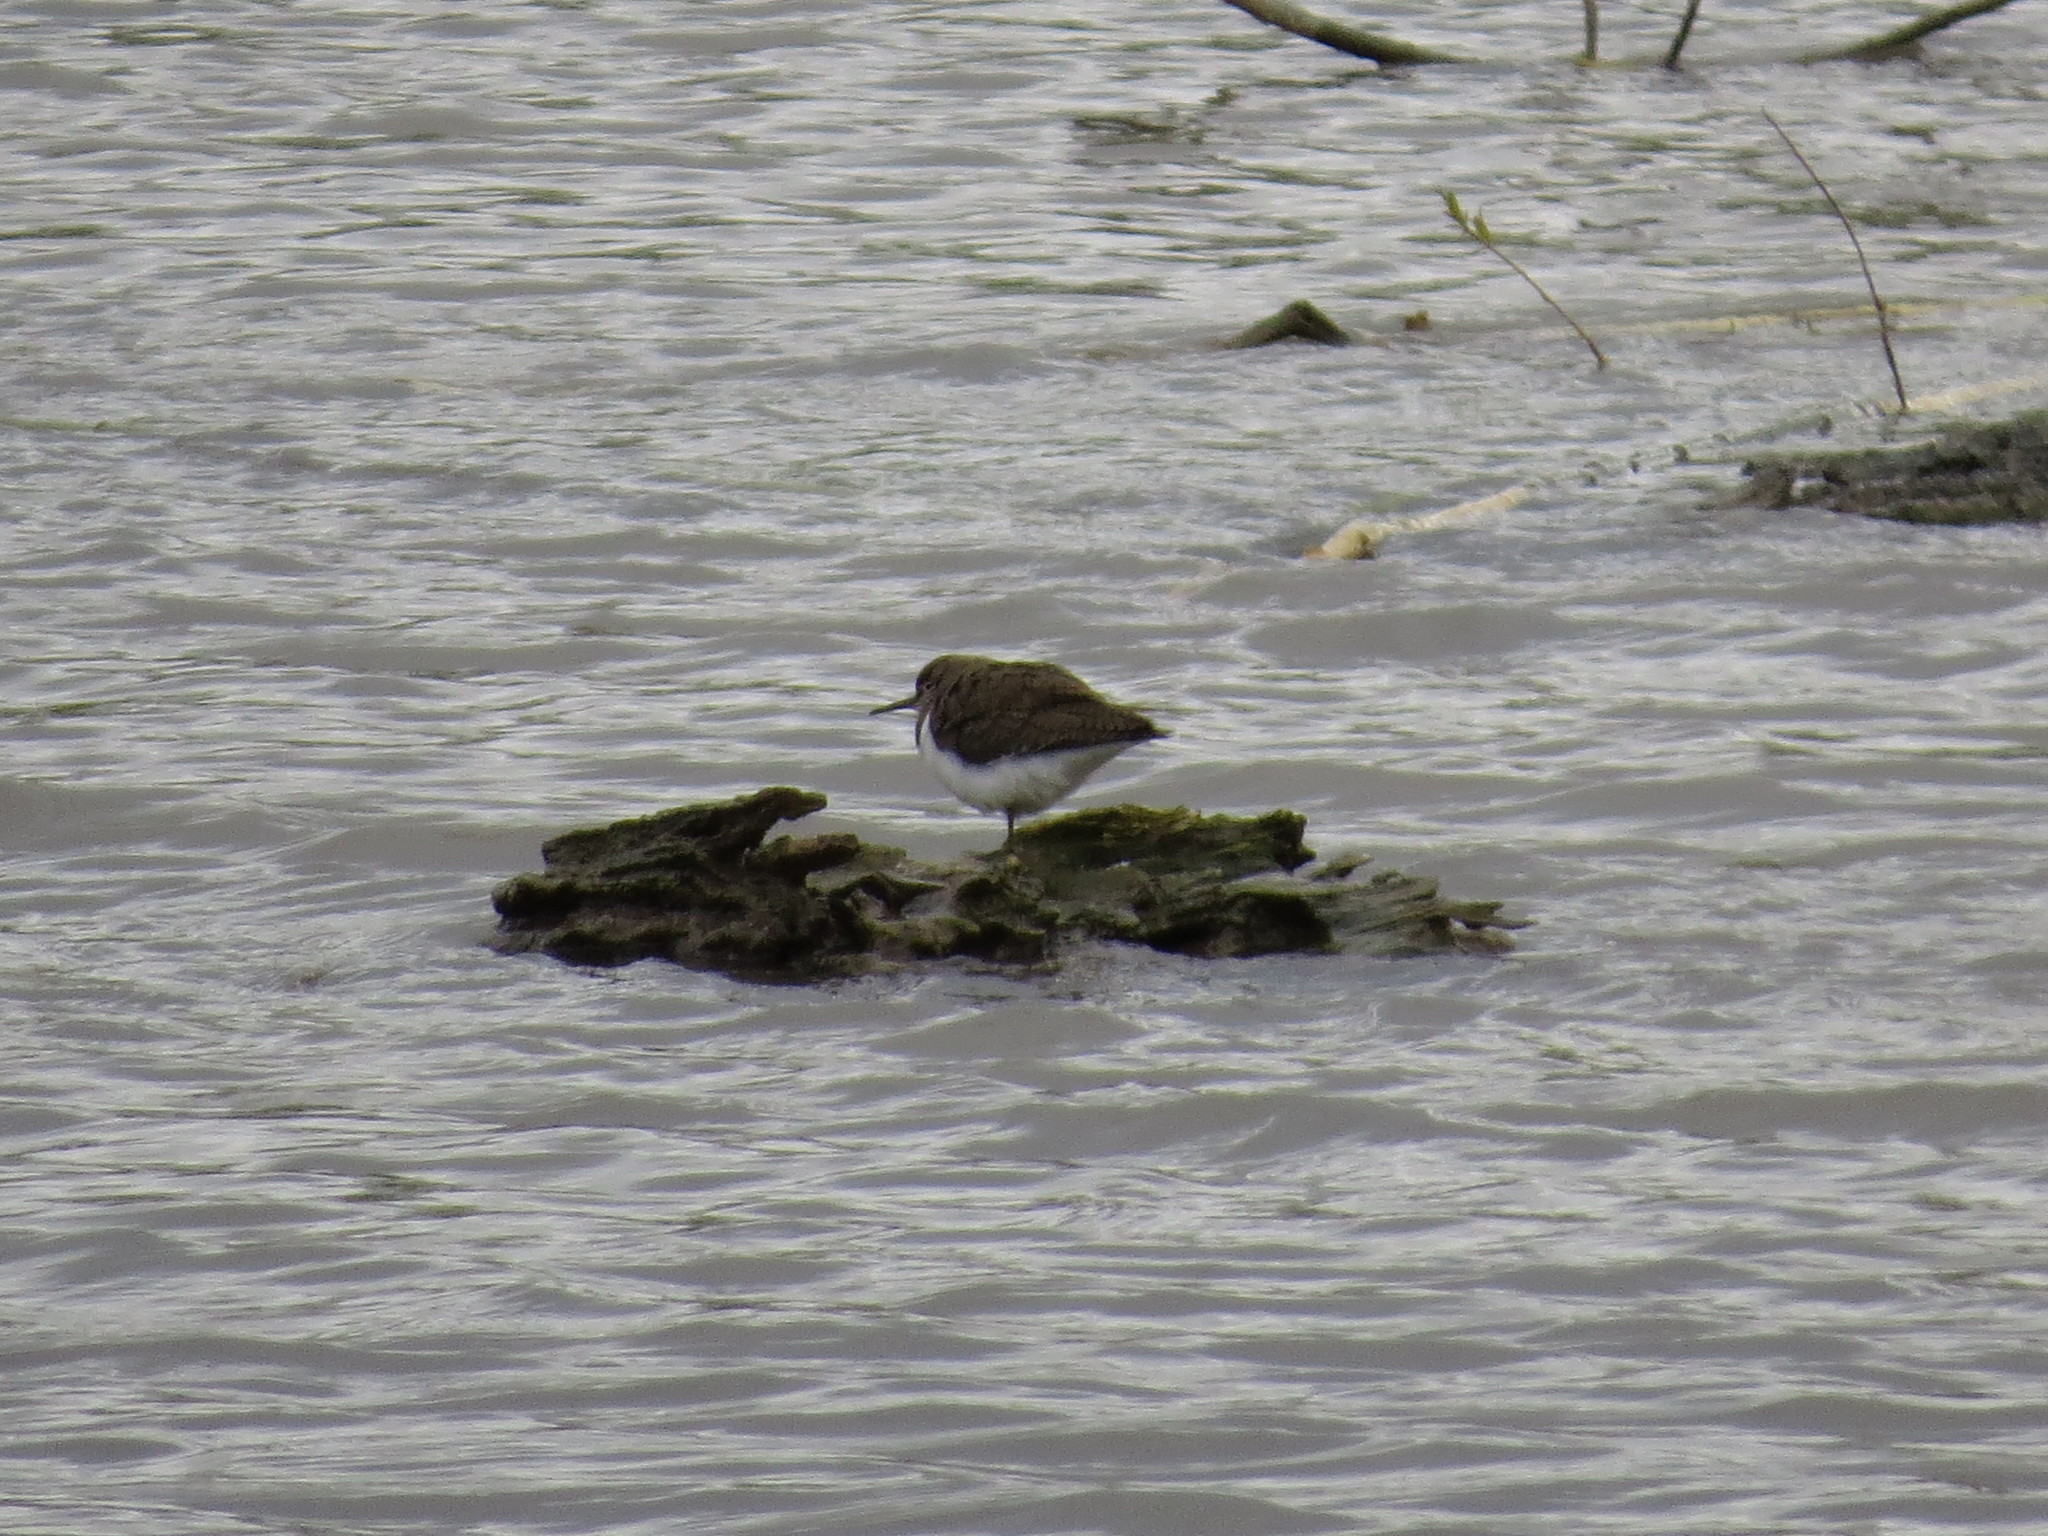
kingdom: Animalia
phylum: Chordata
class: Aves
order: Charadriiformes
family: Scolopacidae
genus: Actitis
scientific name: Actitis hypoleucos
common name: Common sandpiper
